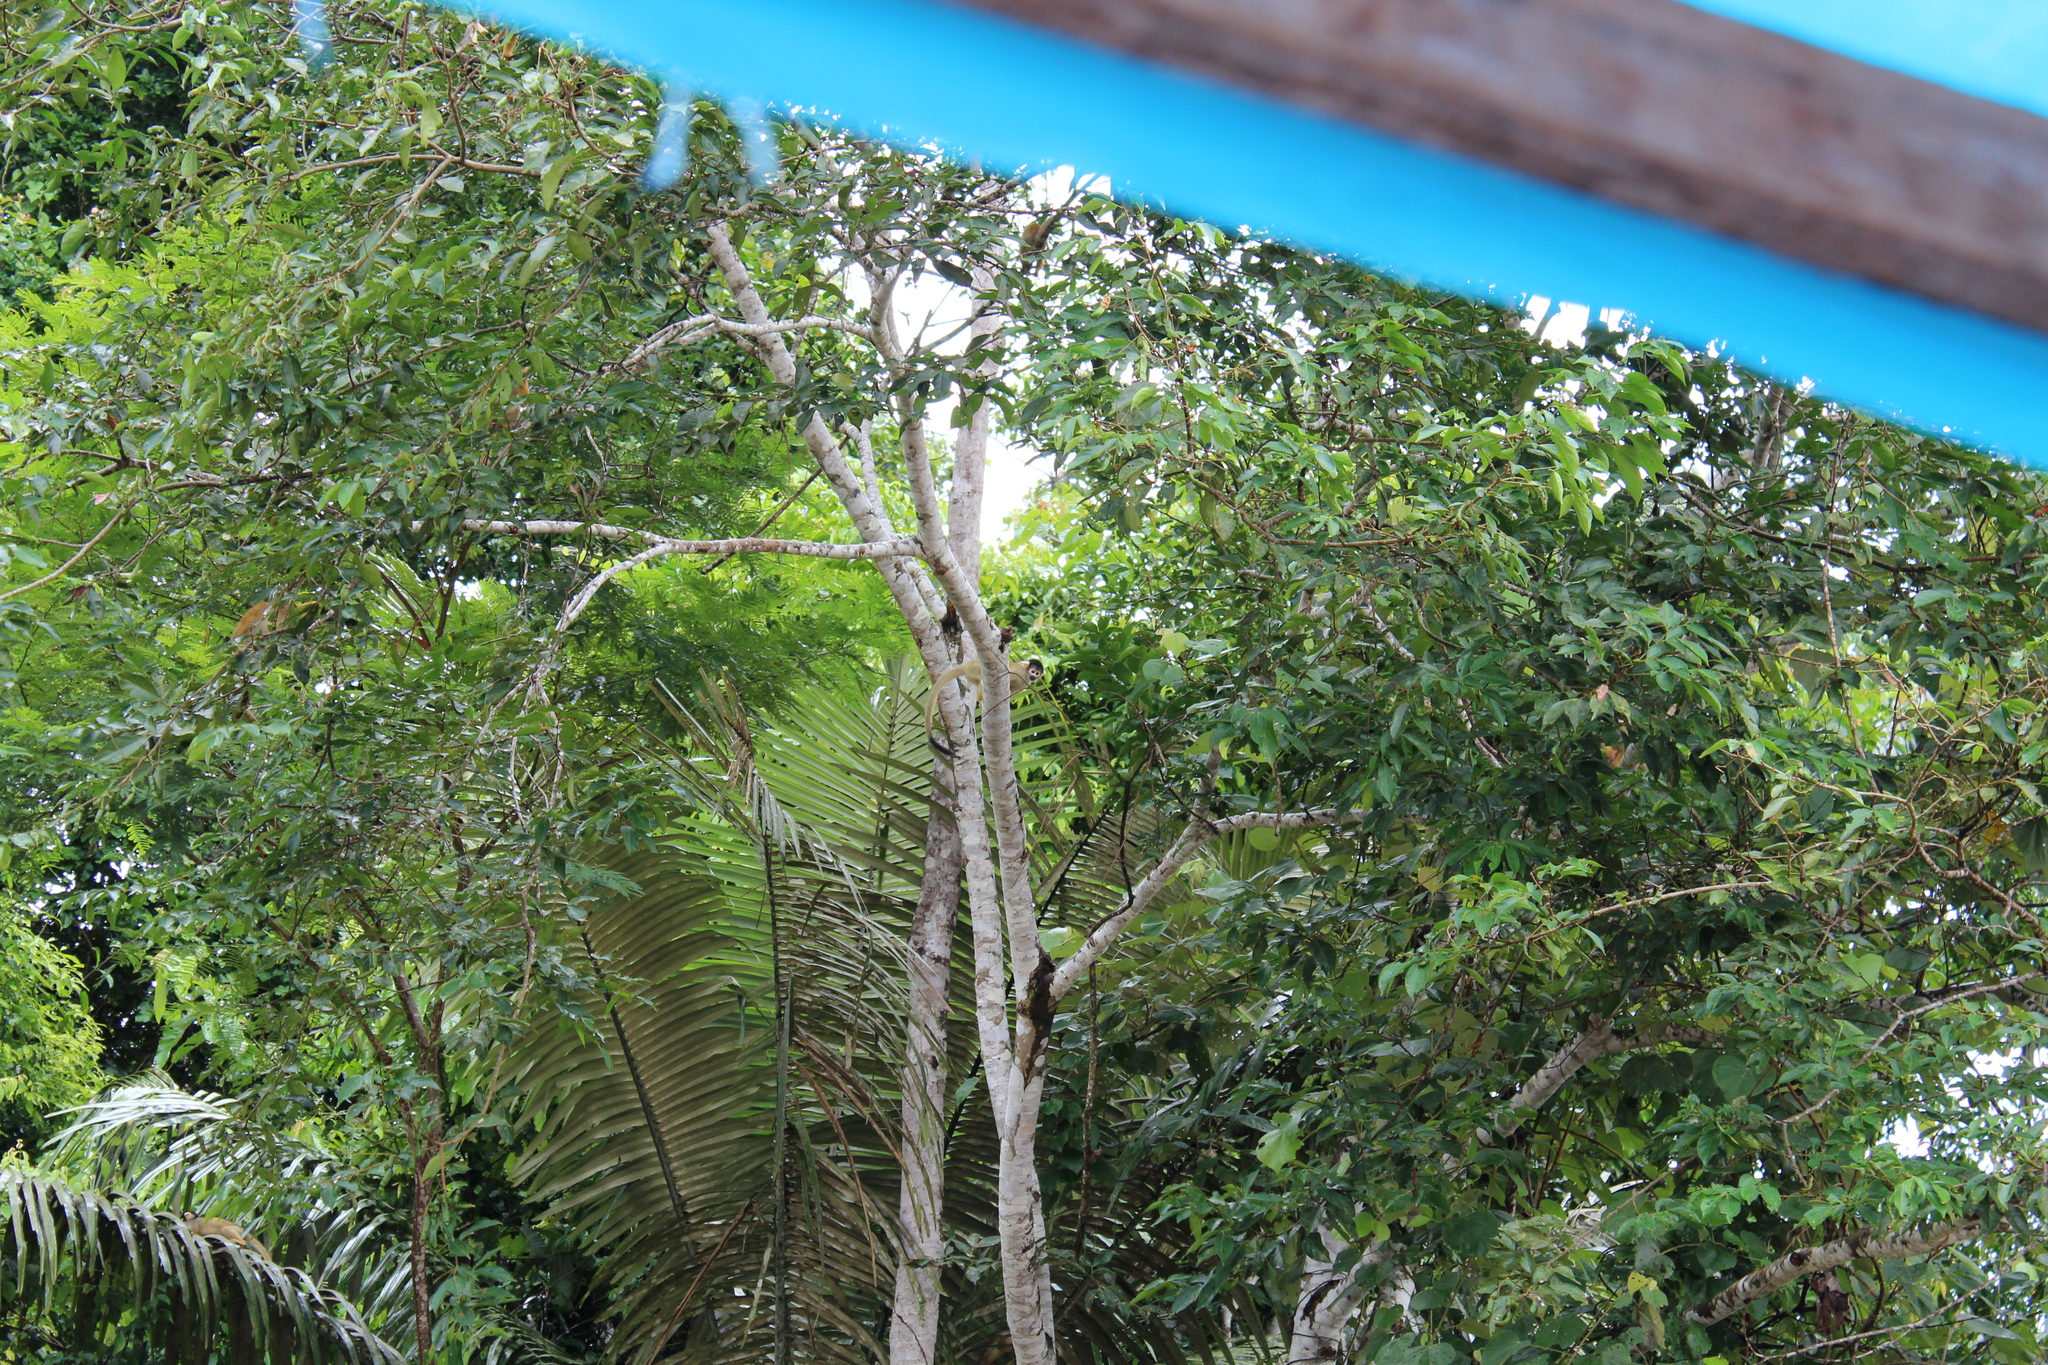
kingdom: Animalia
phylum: Chordata
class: Mammalia
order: Primates
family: Cebidae
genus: Saimiri
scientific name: Saimiri boliviensis
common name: Black-capped squirrel monkey
